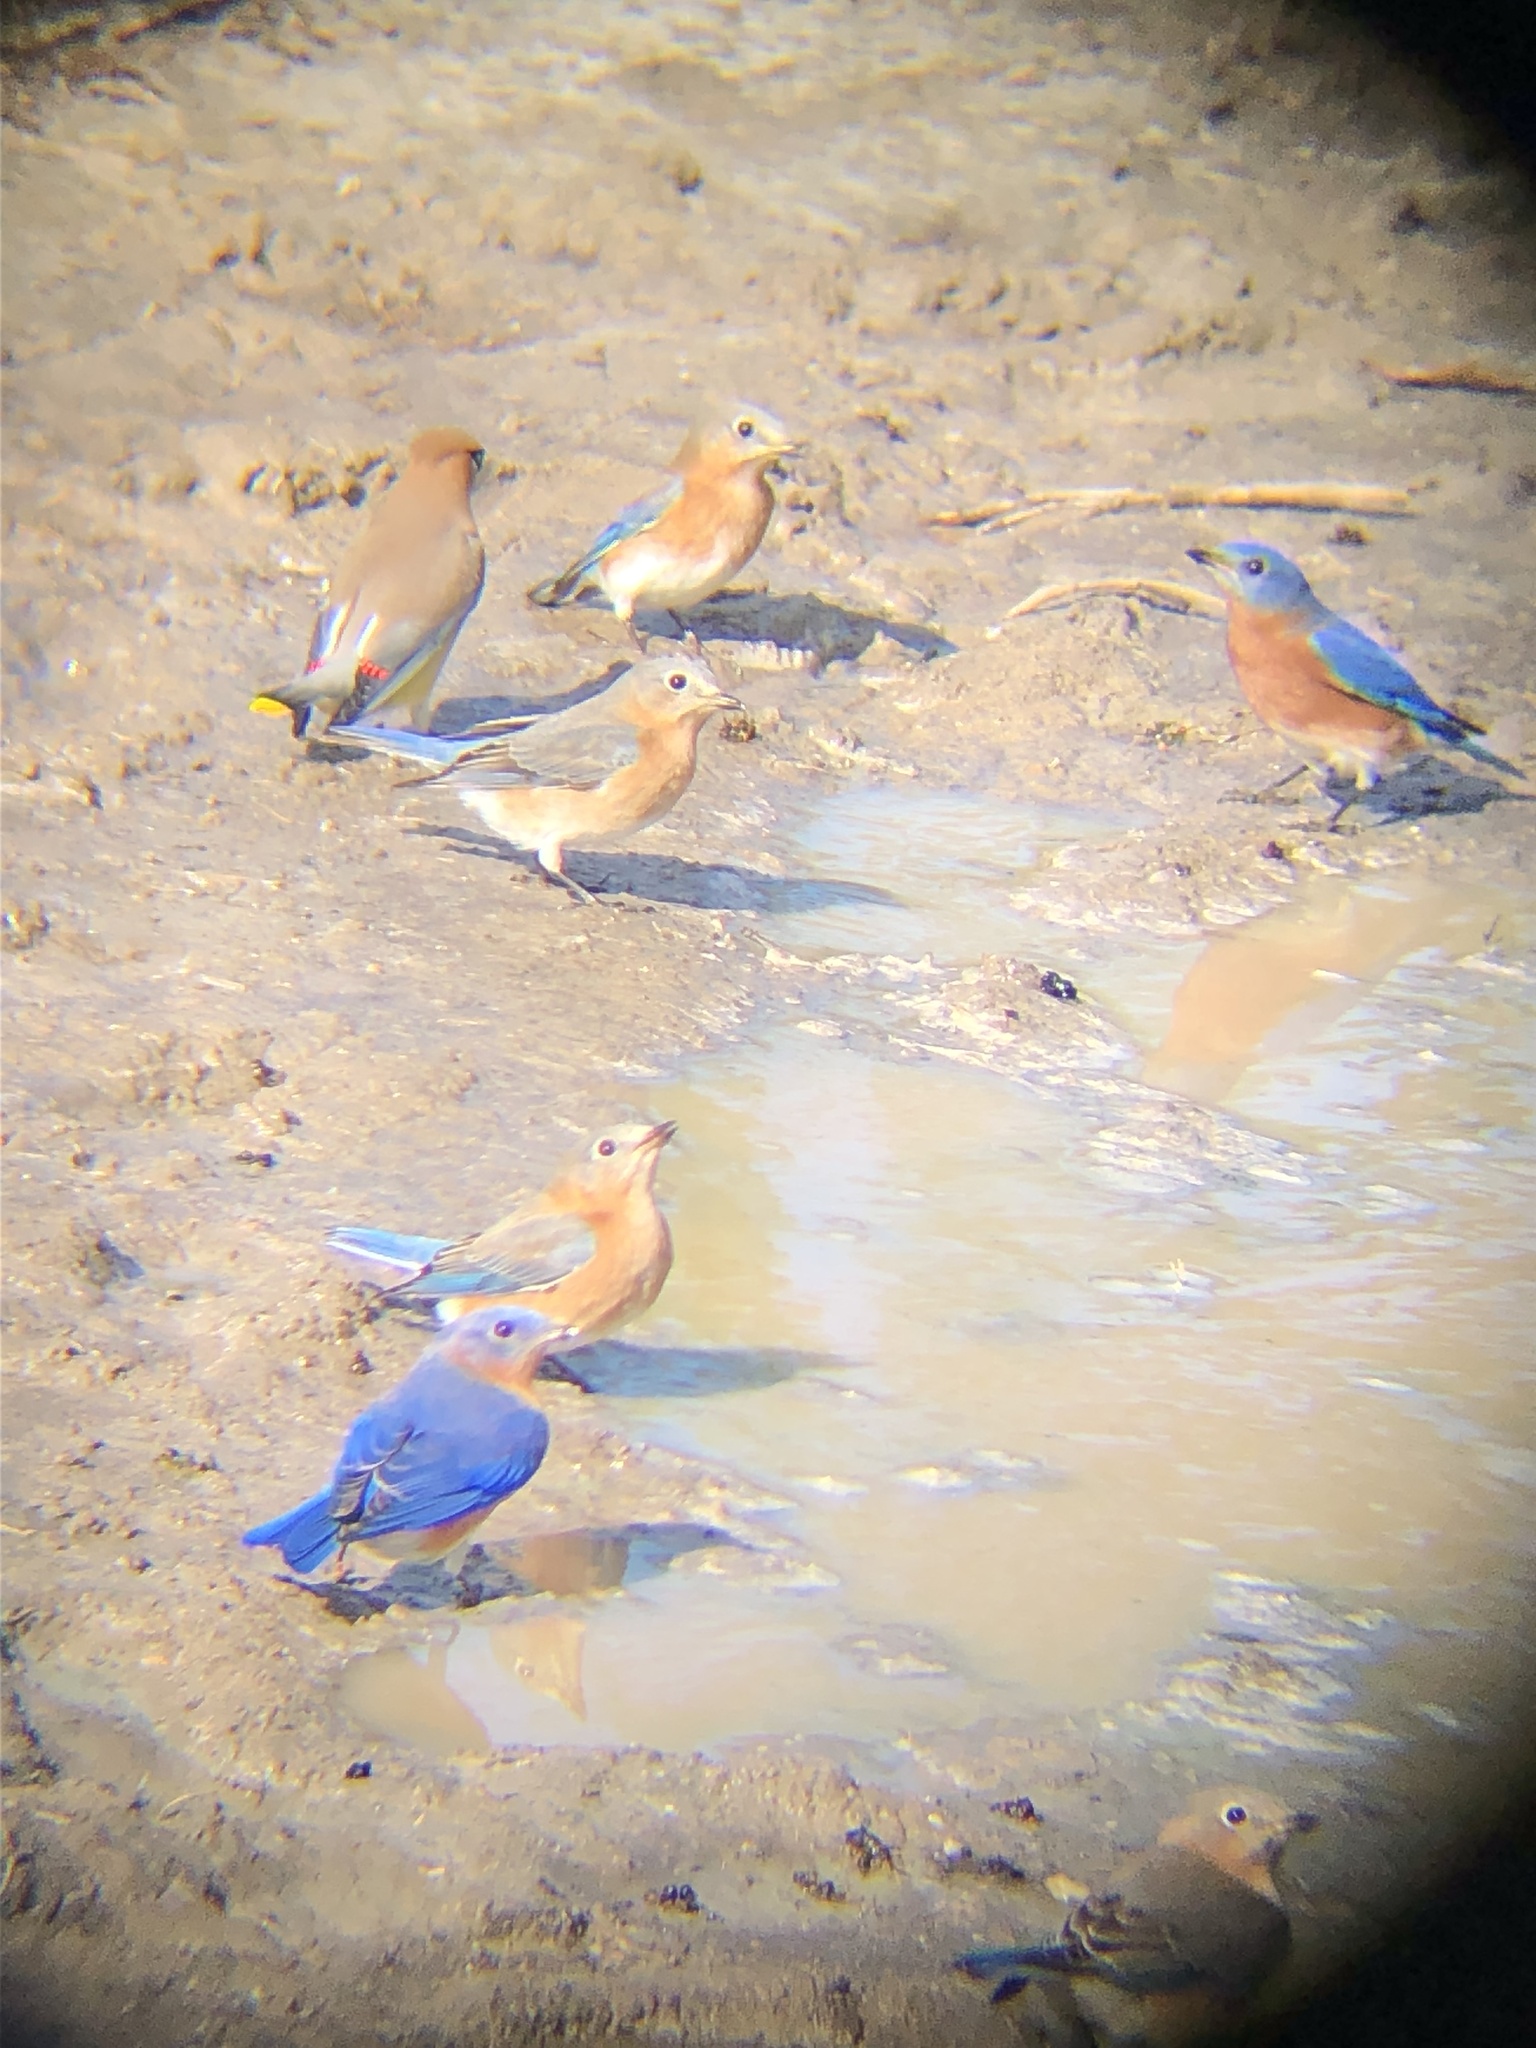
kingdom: Animalia
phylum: Chordata
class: Aves
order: Passeriformes
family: Turdidae
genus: Sialia
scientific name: Sialia sialis
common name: Eastern bluebird
